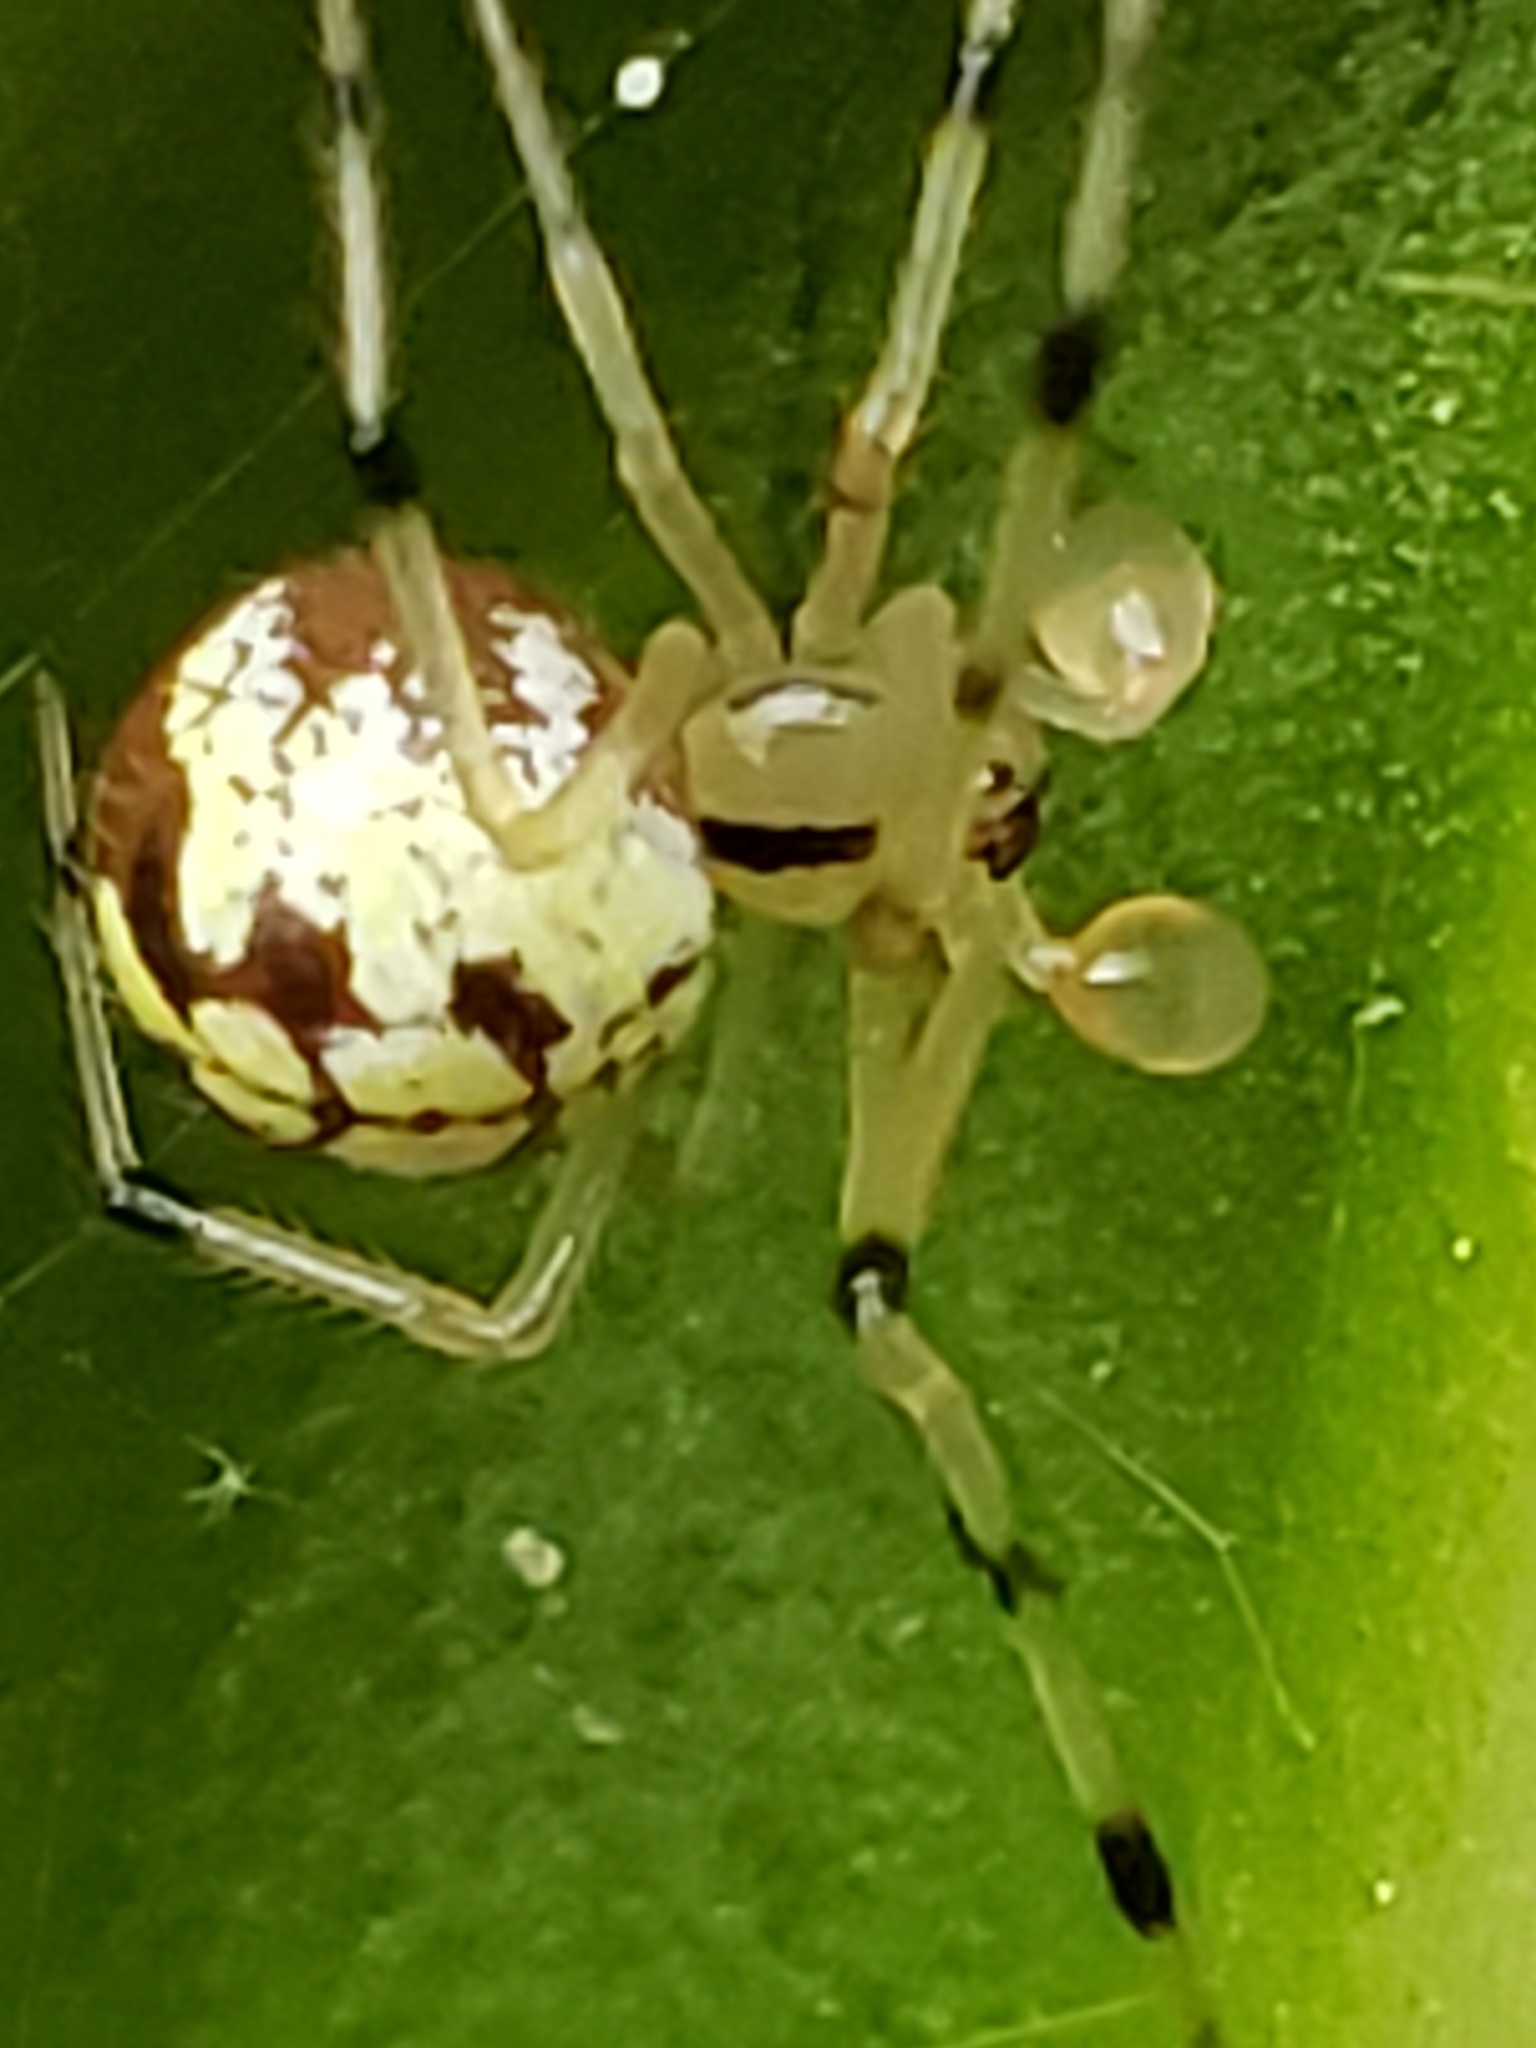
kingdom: Animalia
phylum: Arthropoda
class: Arachnida
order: Araneae
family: Theridiidae
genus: Phylloneta
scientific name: Phylloneta pictipes
